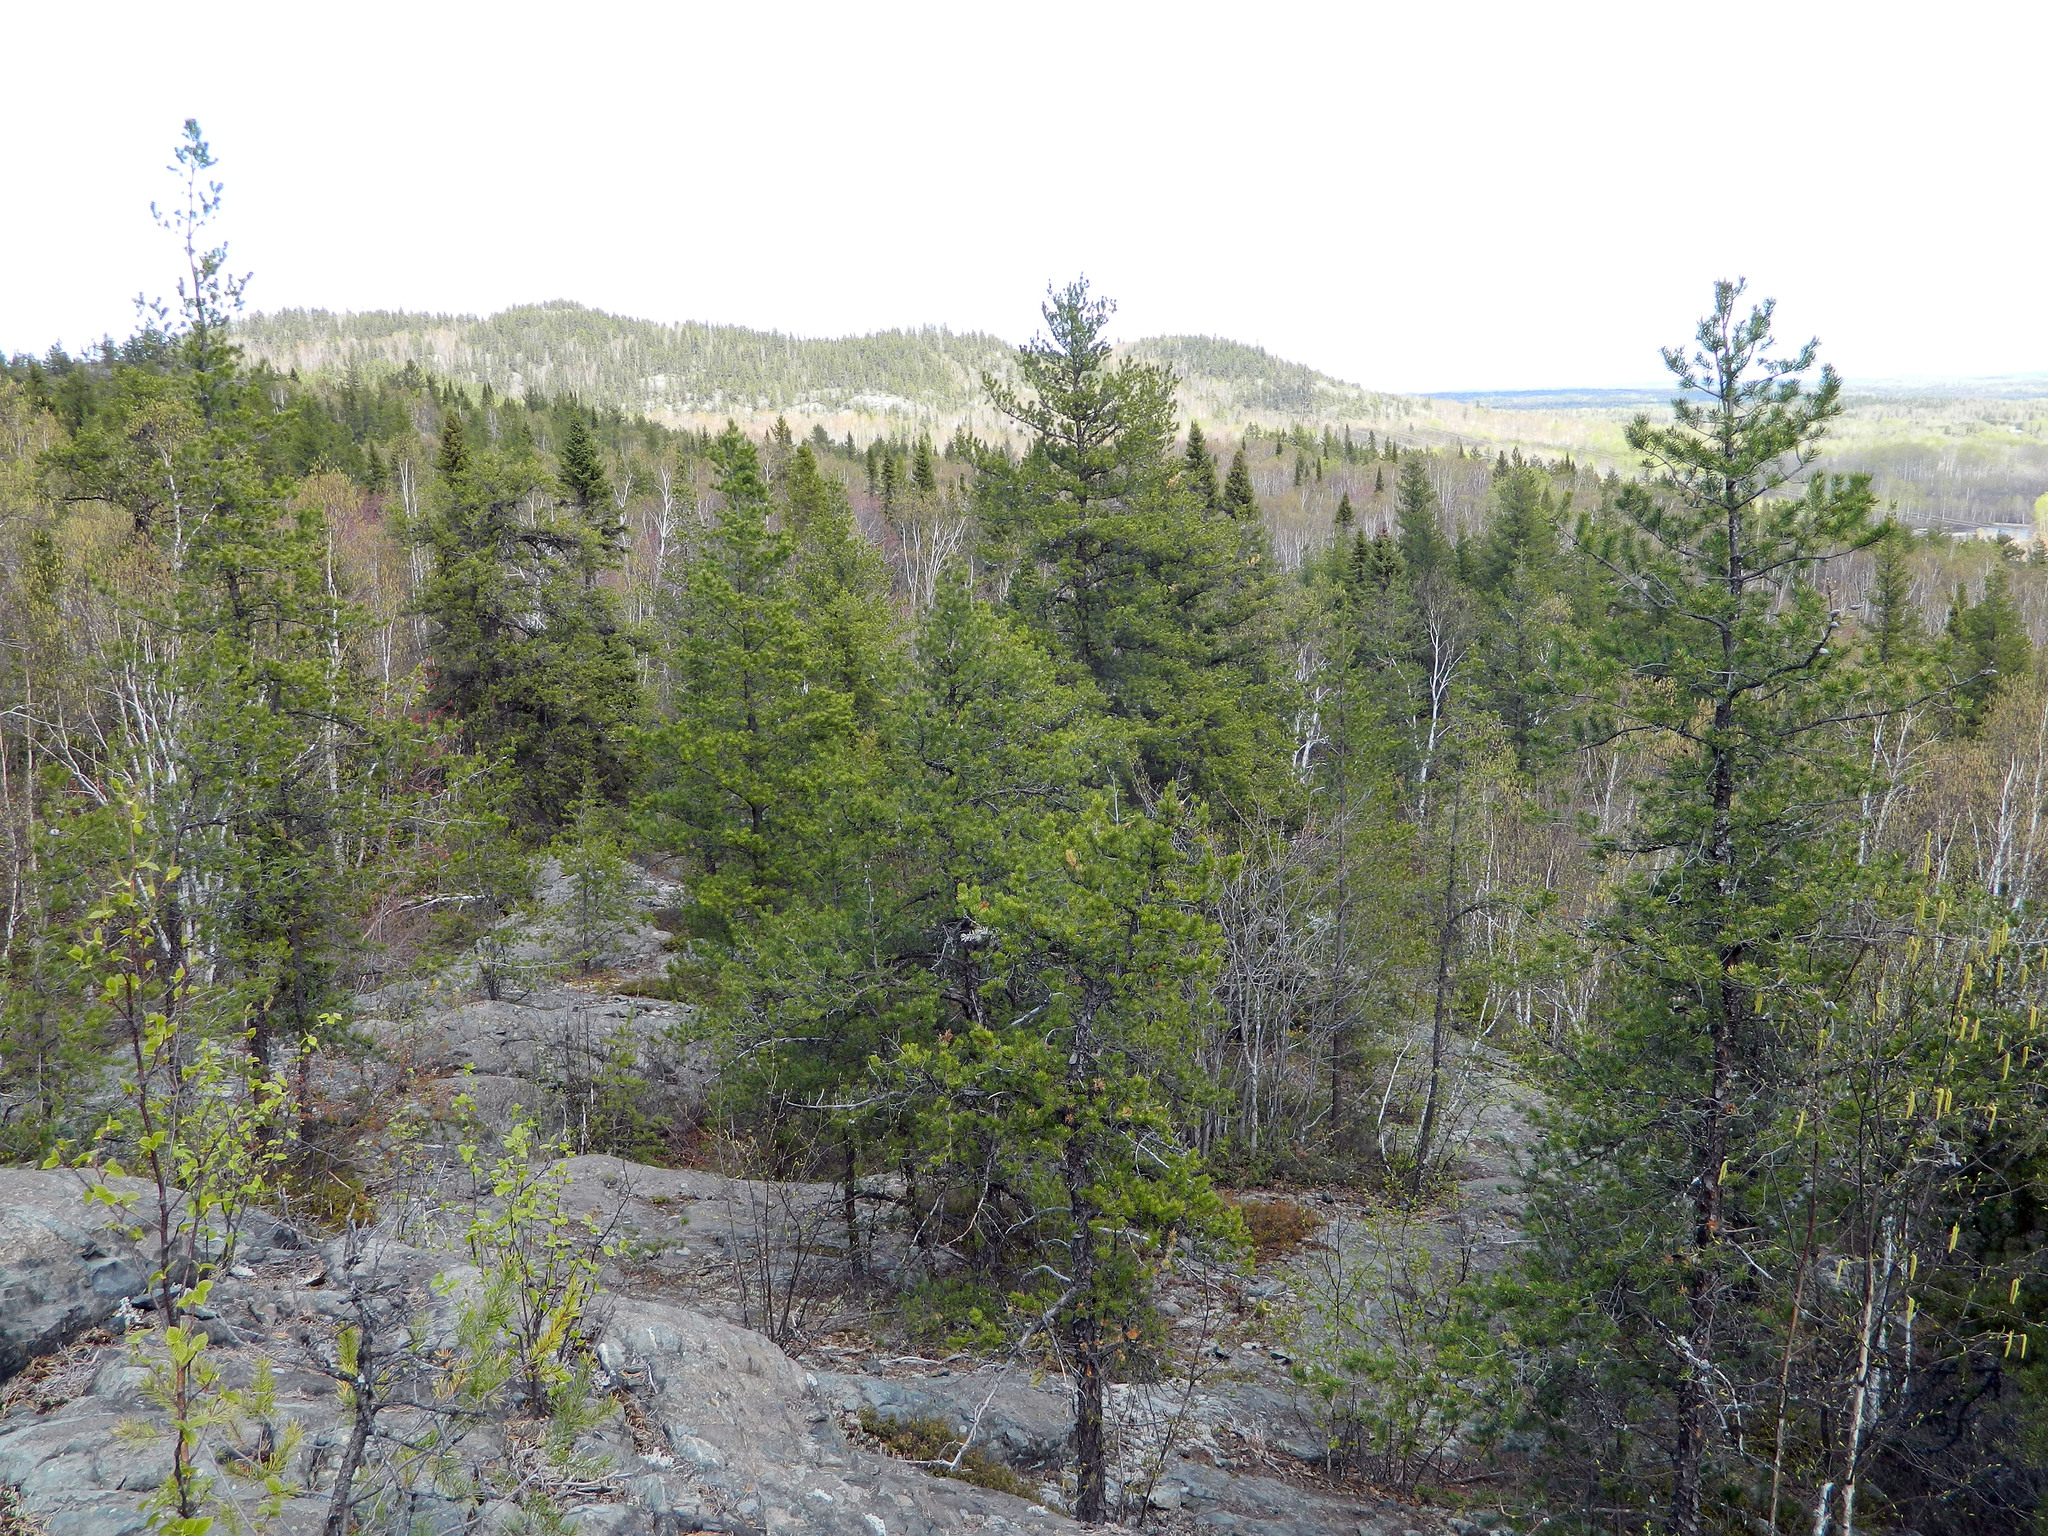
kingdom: Plantae
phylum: Tracheophyta
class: Pinopsida
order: Pinales
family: Pinaceae
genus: Pinus
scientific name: Pinus banksiana
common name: Jack pine
